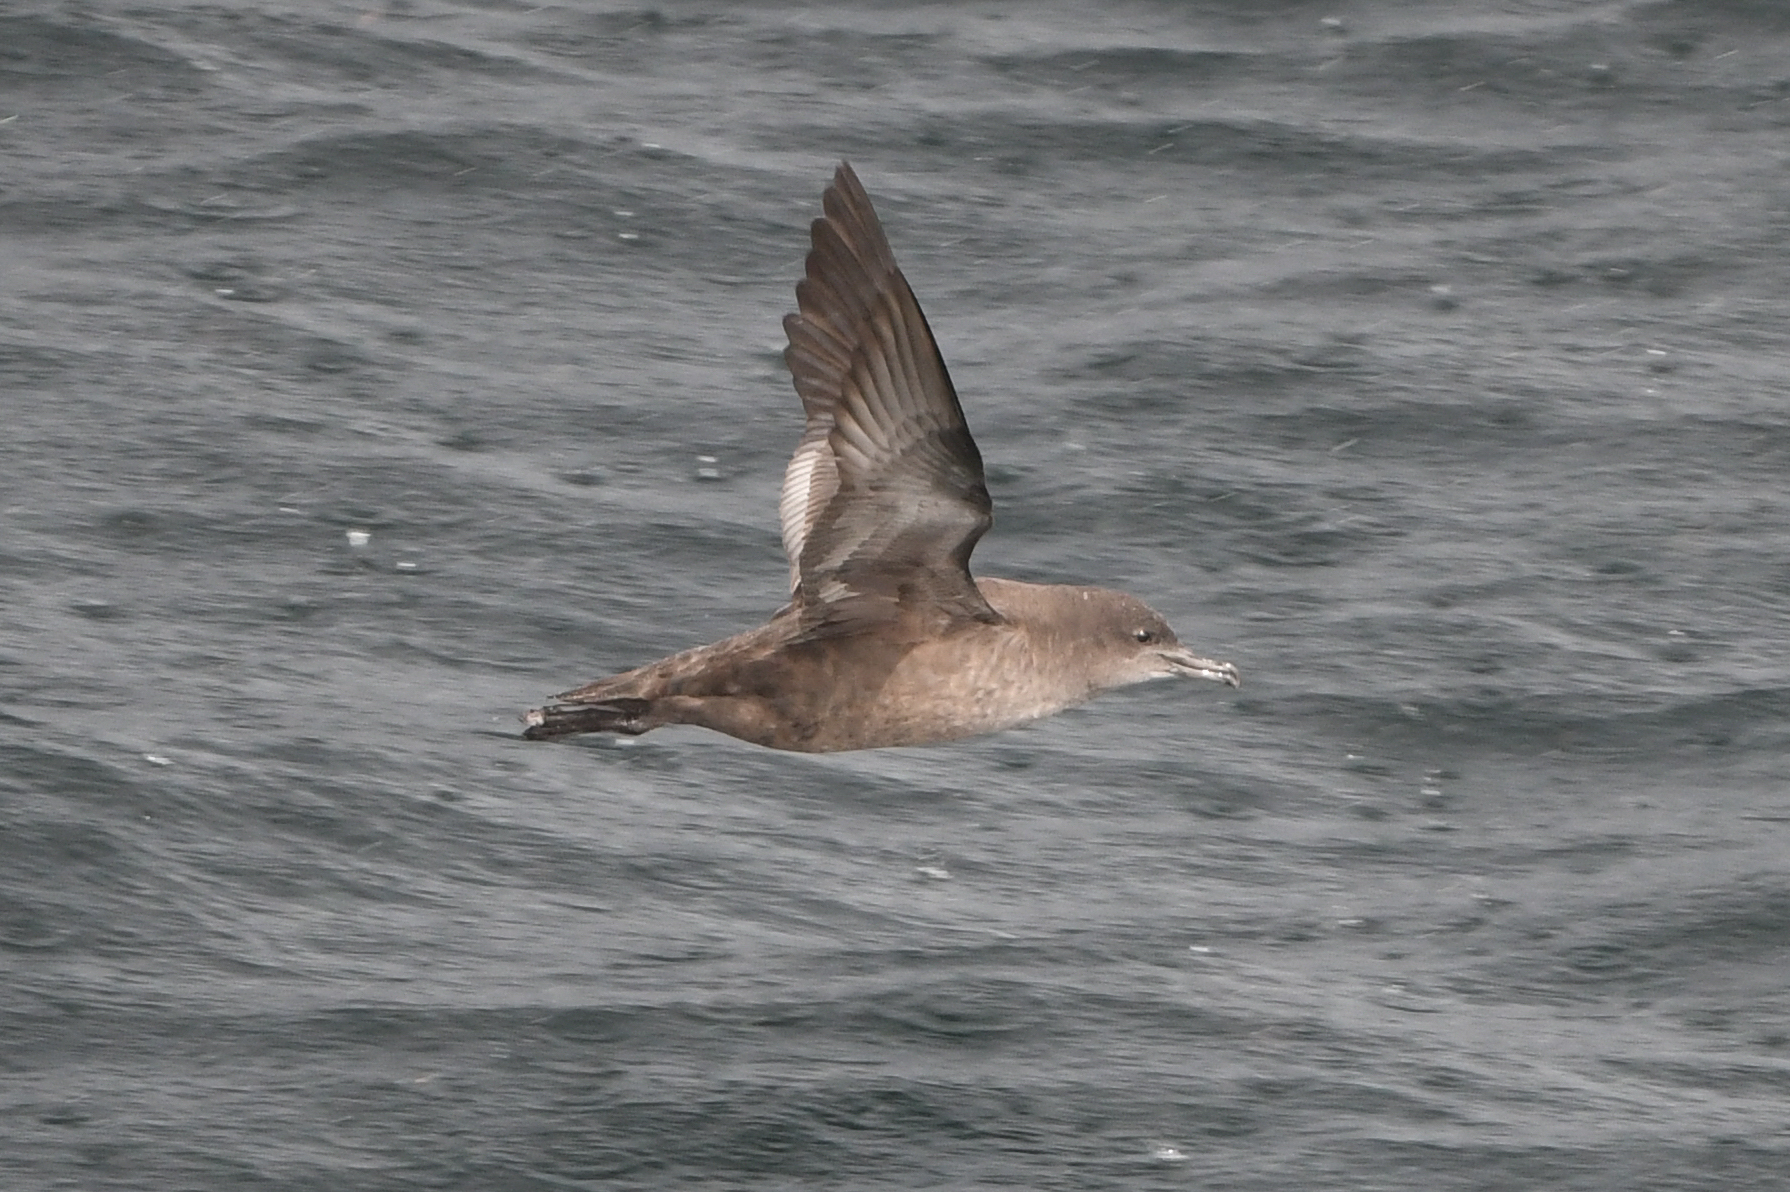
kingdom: Animalia
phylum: Chordata
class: Aves
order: Procellariiformes
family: Procellariidae
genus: Puffinus
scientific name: Puffinus griseus
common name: Sooty shearwater
